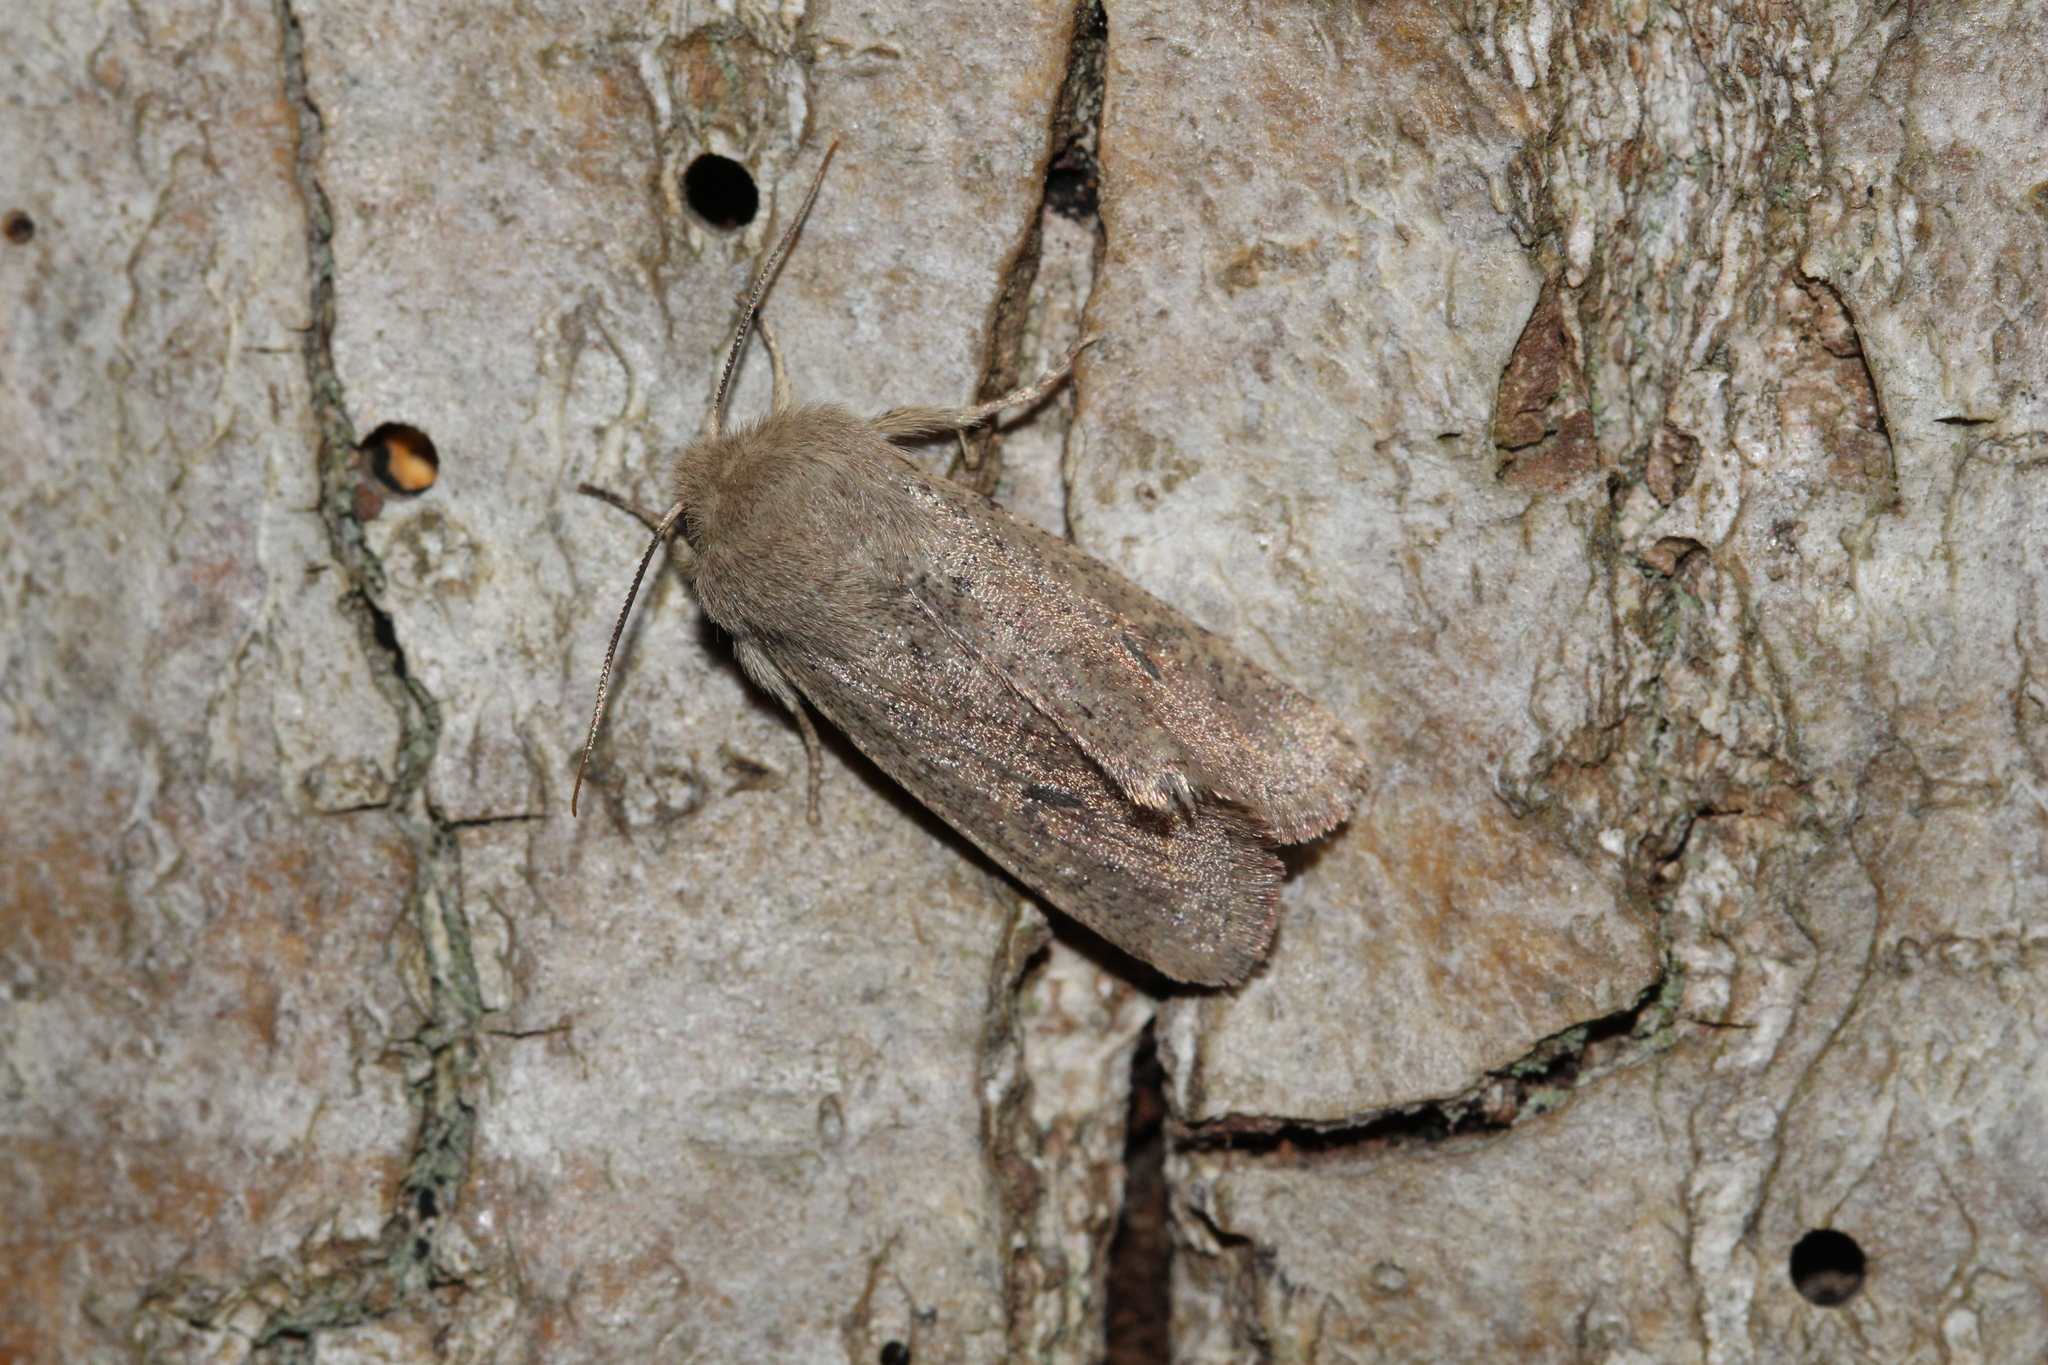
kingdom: Animalia
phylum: Arthropoda
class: Insecta
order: Lepidoptera
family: Noctuidae
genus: Orthosia
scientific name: Orthosia cruda
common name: Small quaker
